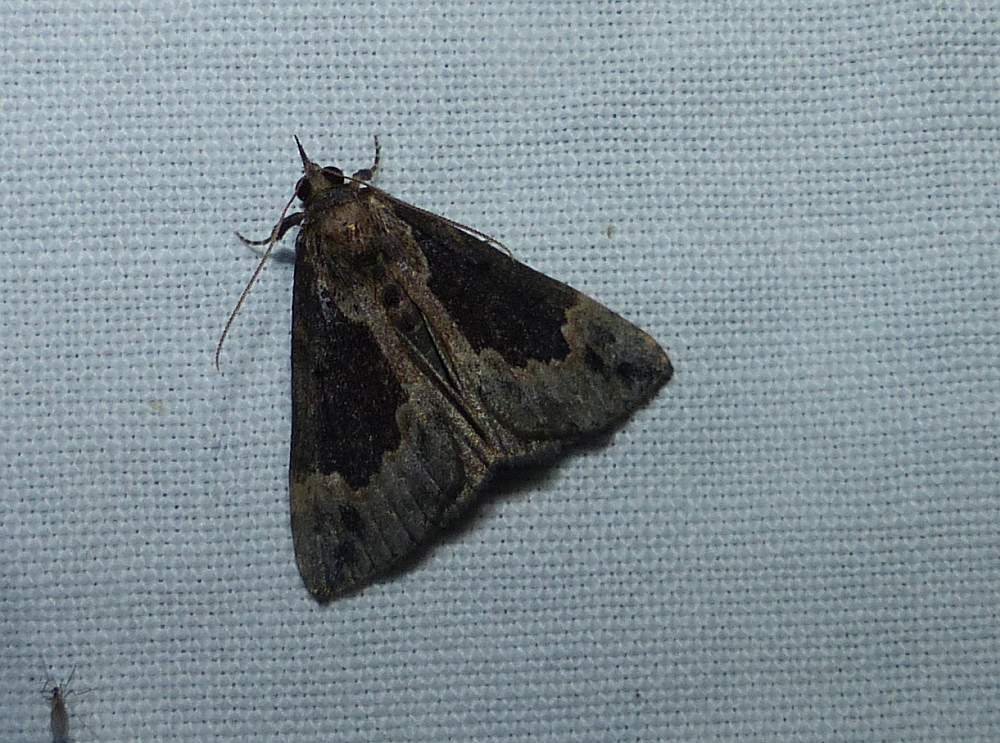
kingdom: Animalia
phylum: Arthropoda
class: Insecta
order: Lepidoptera
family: Erebidae
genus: Hypena
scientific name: Hypena baltimoralis
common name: Baltimore snout
